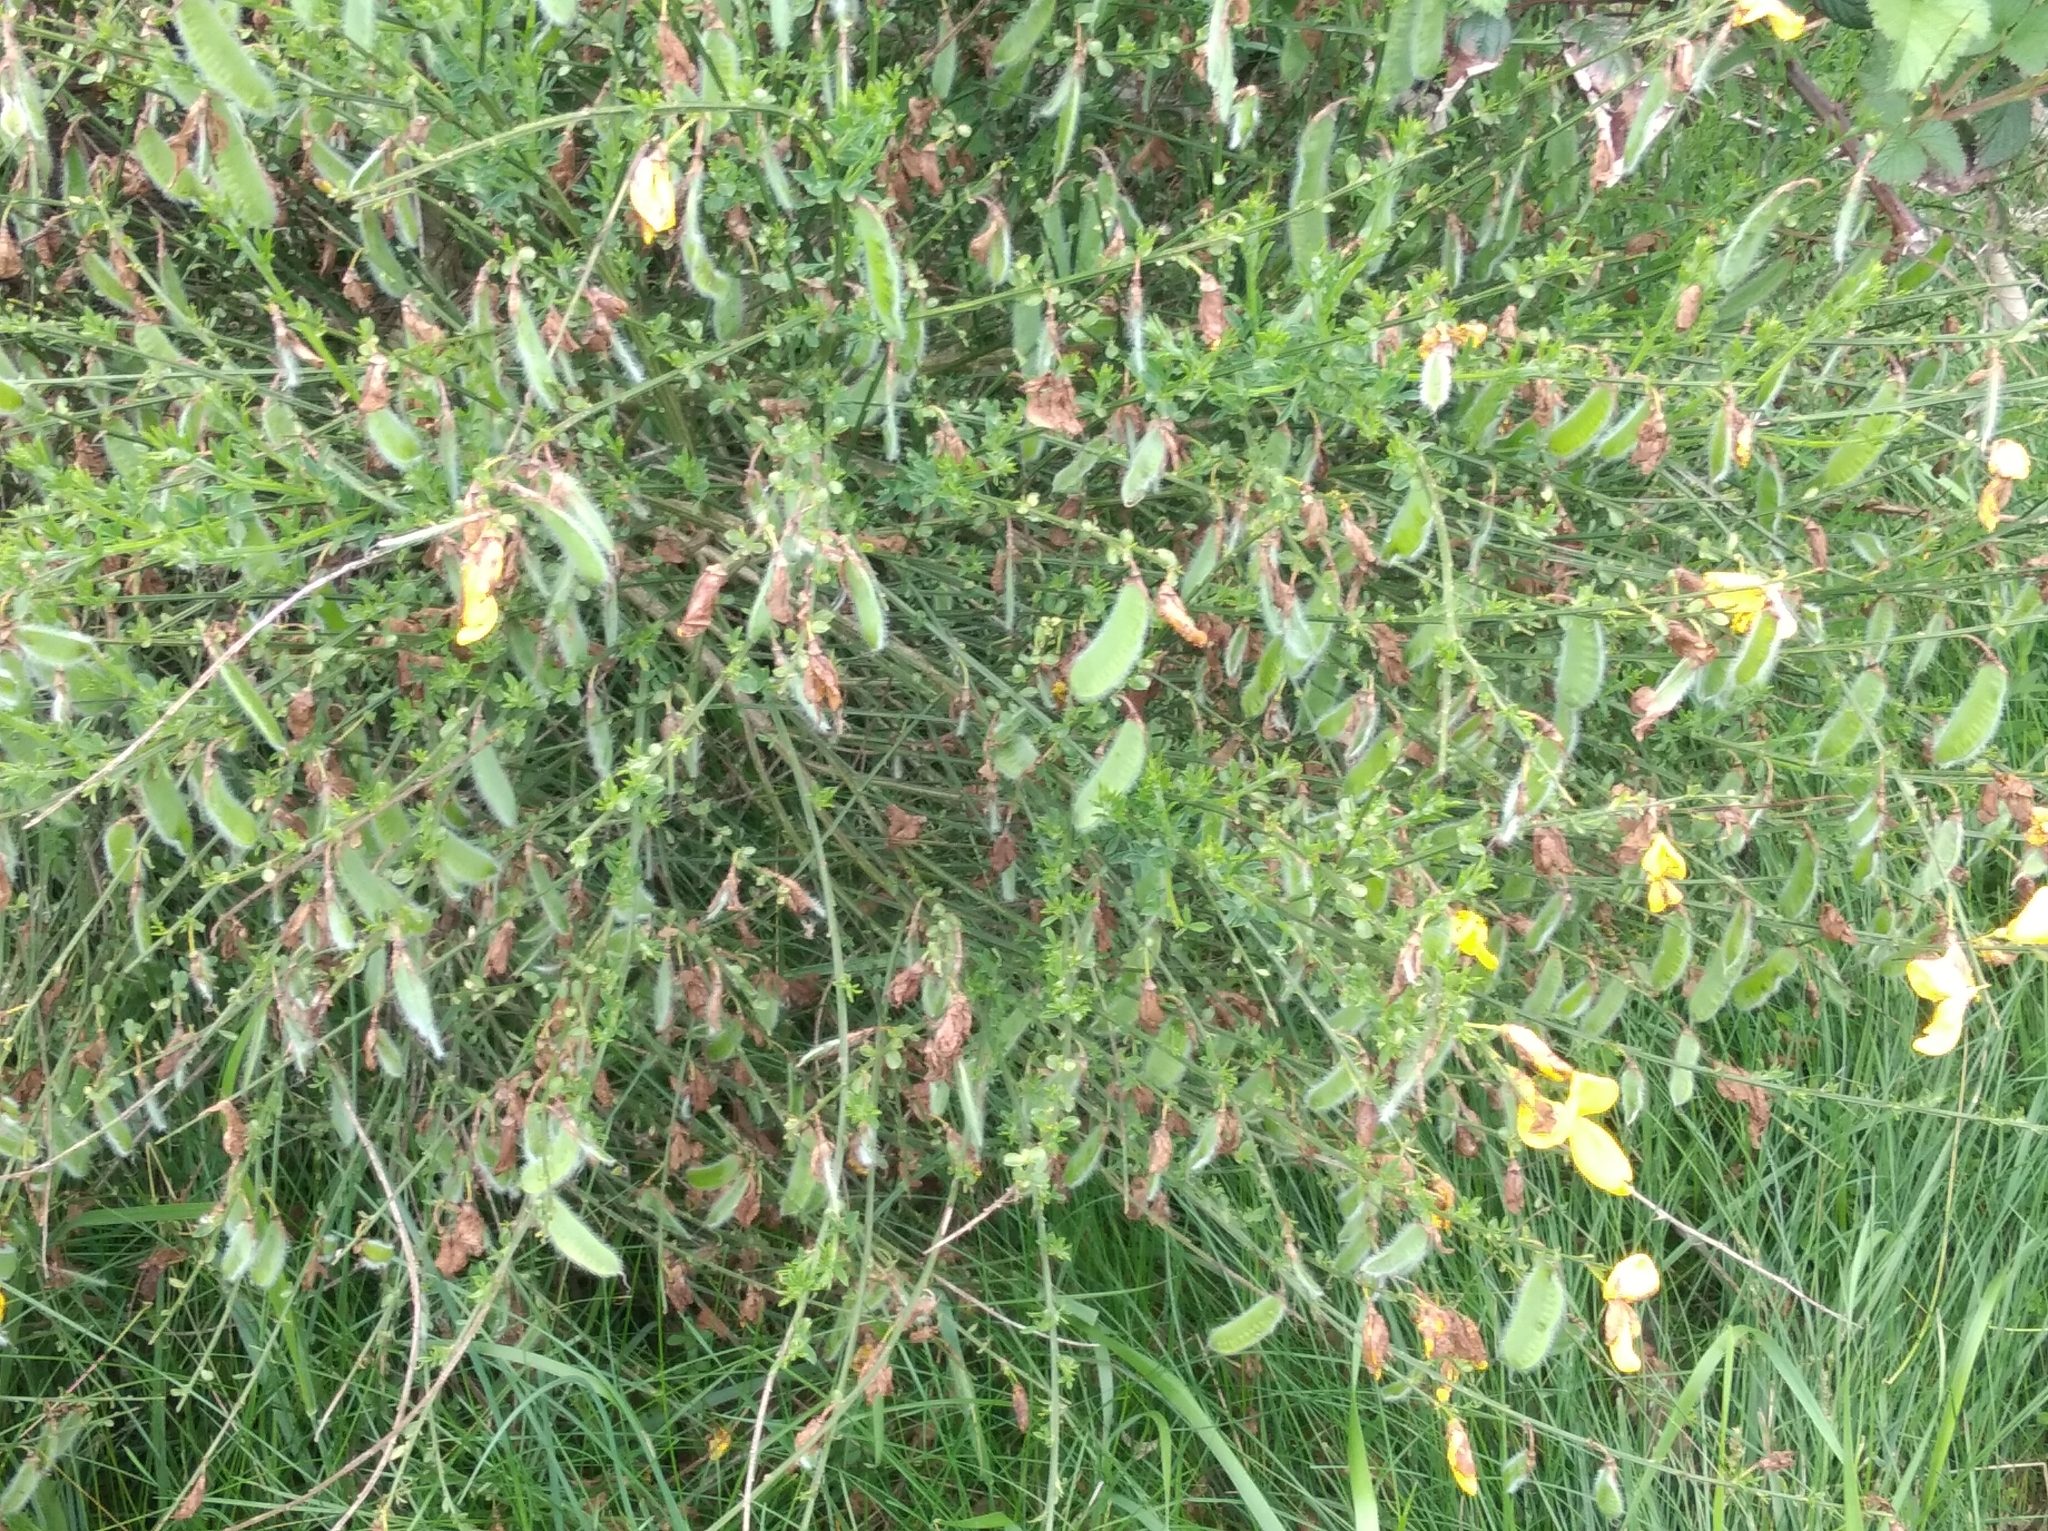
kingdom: Plantae
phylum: Tracheophyta
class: Magnoliopsida
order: Fabales
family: Fabaceae
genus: Cytisus
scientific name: Cytisus scoparius
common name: Scotch broom
